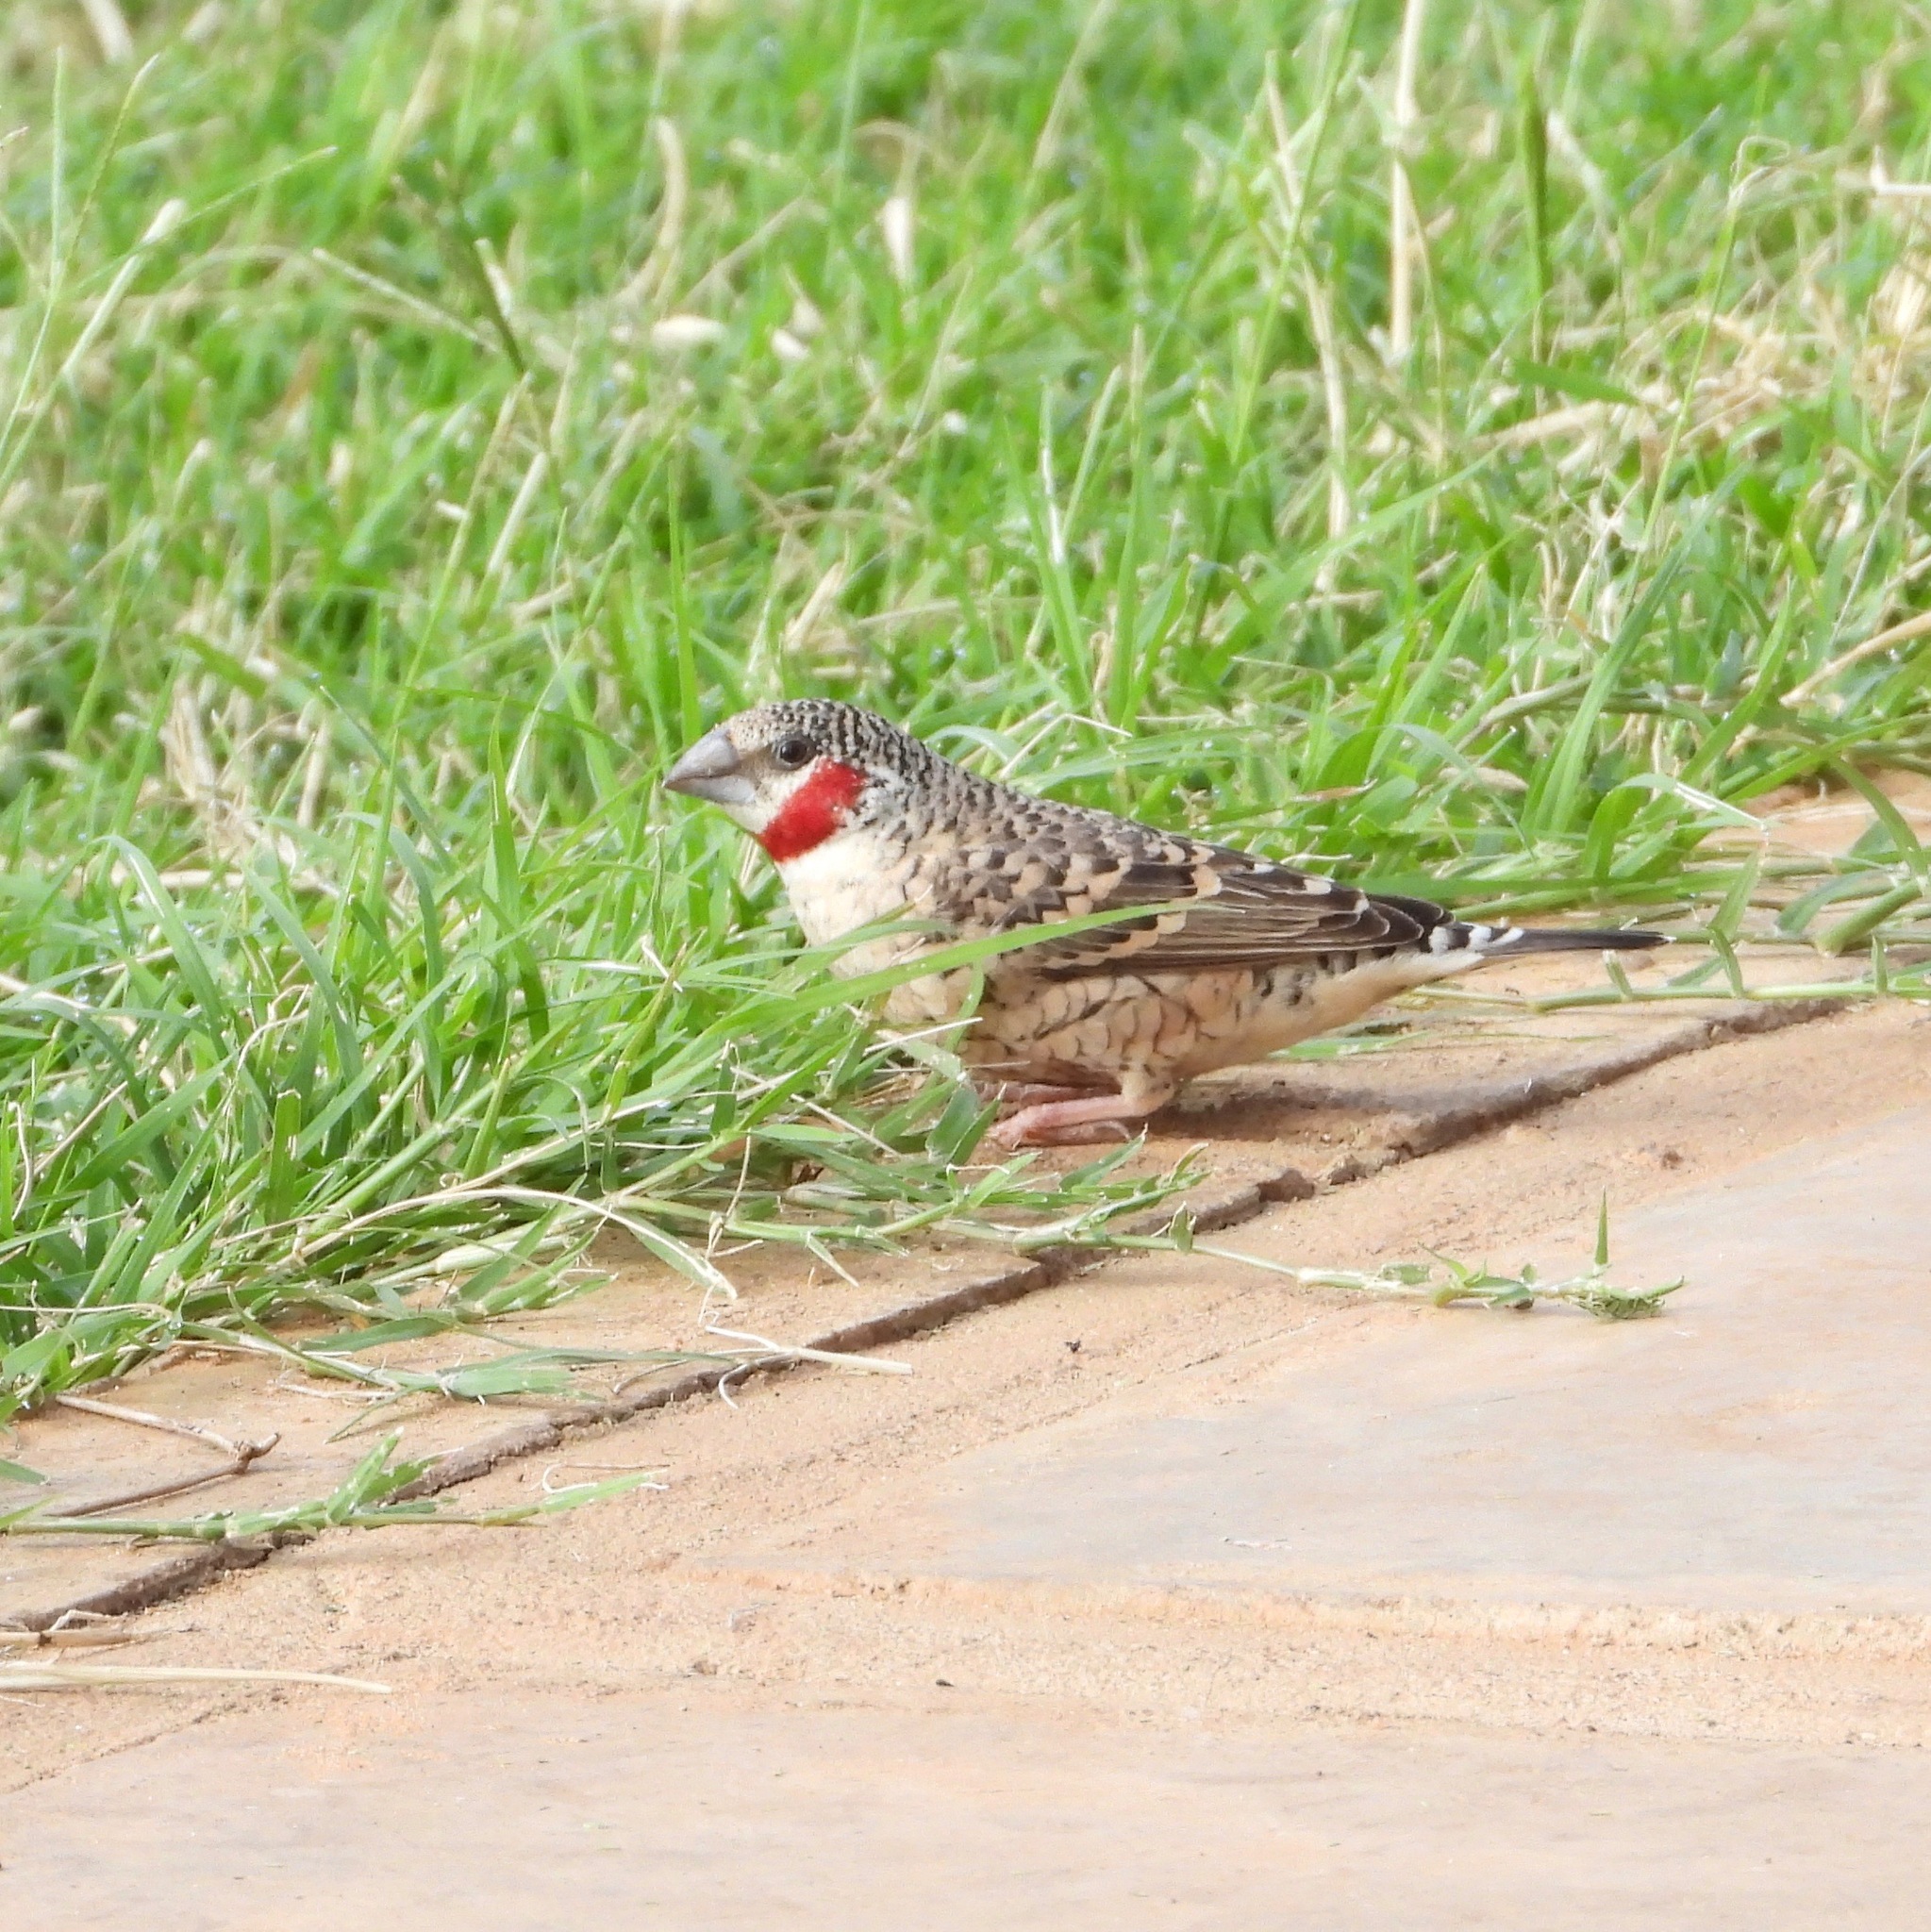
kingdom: Animalia
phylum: Chordata
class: Aves
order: Passeriformes
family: Estrildidae
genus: Amadina
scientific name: Amadina fasciata
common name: Cut-throat finch
